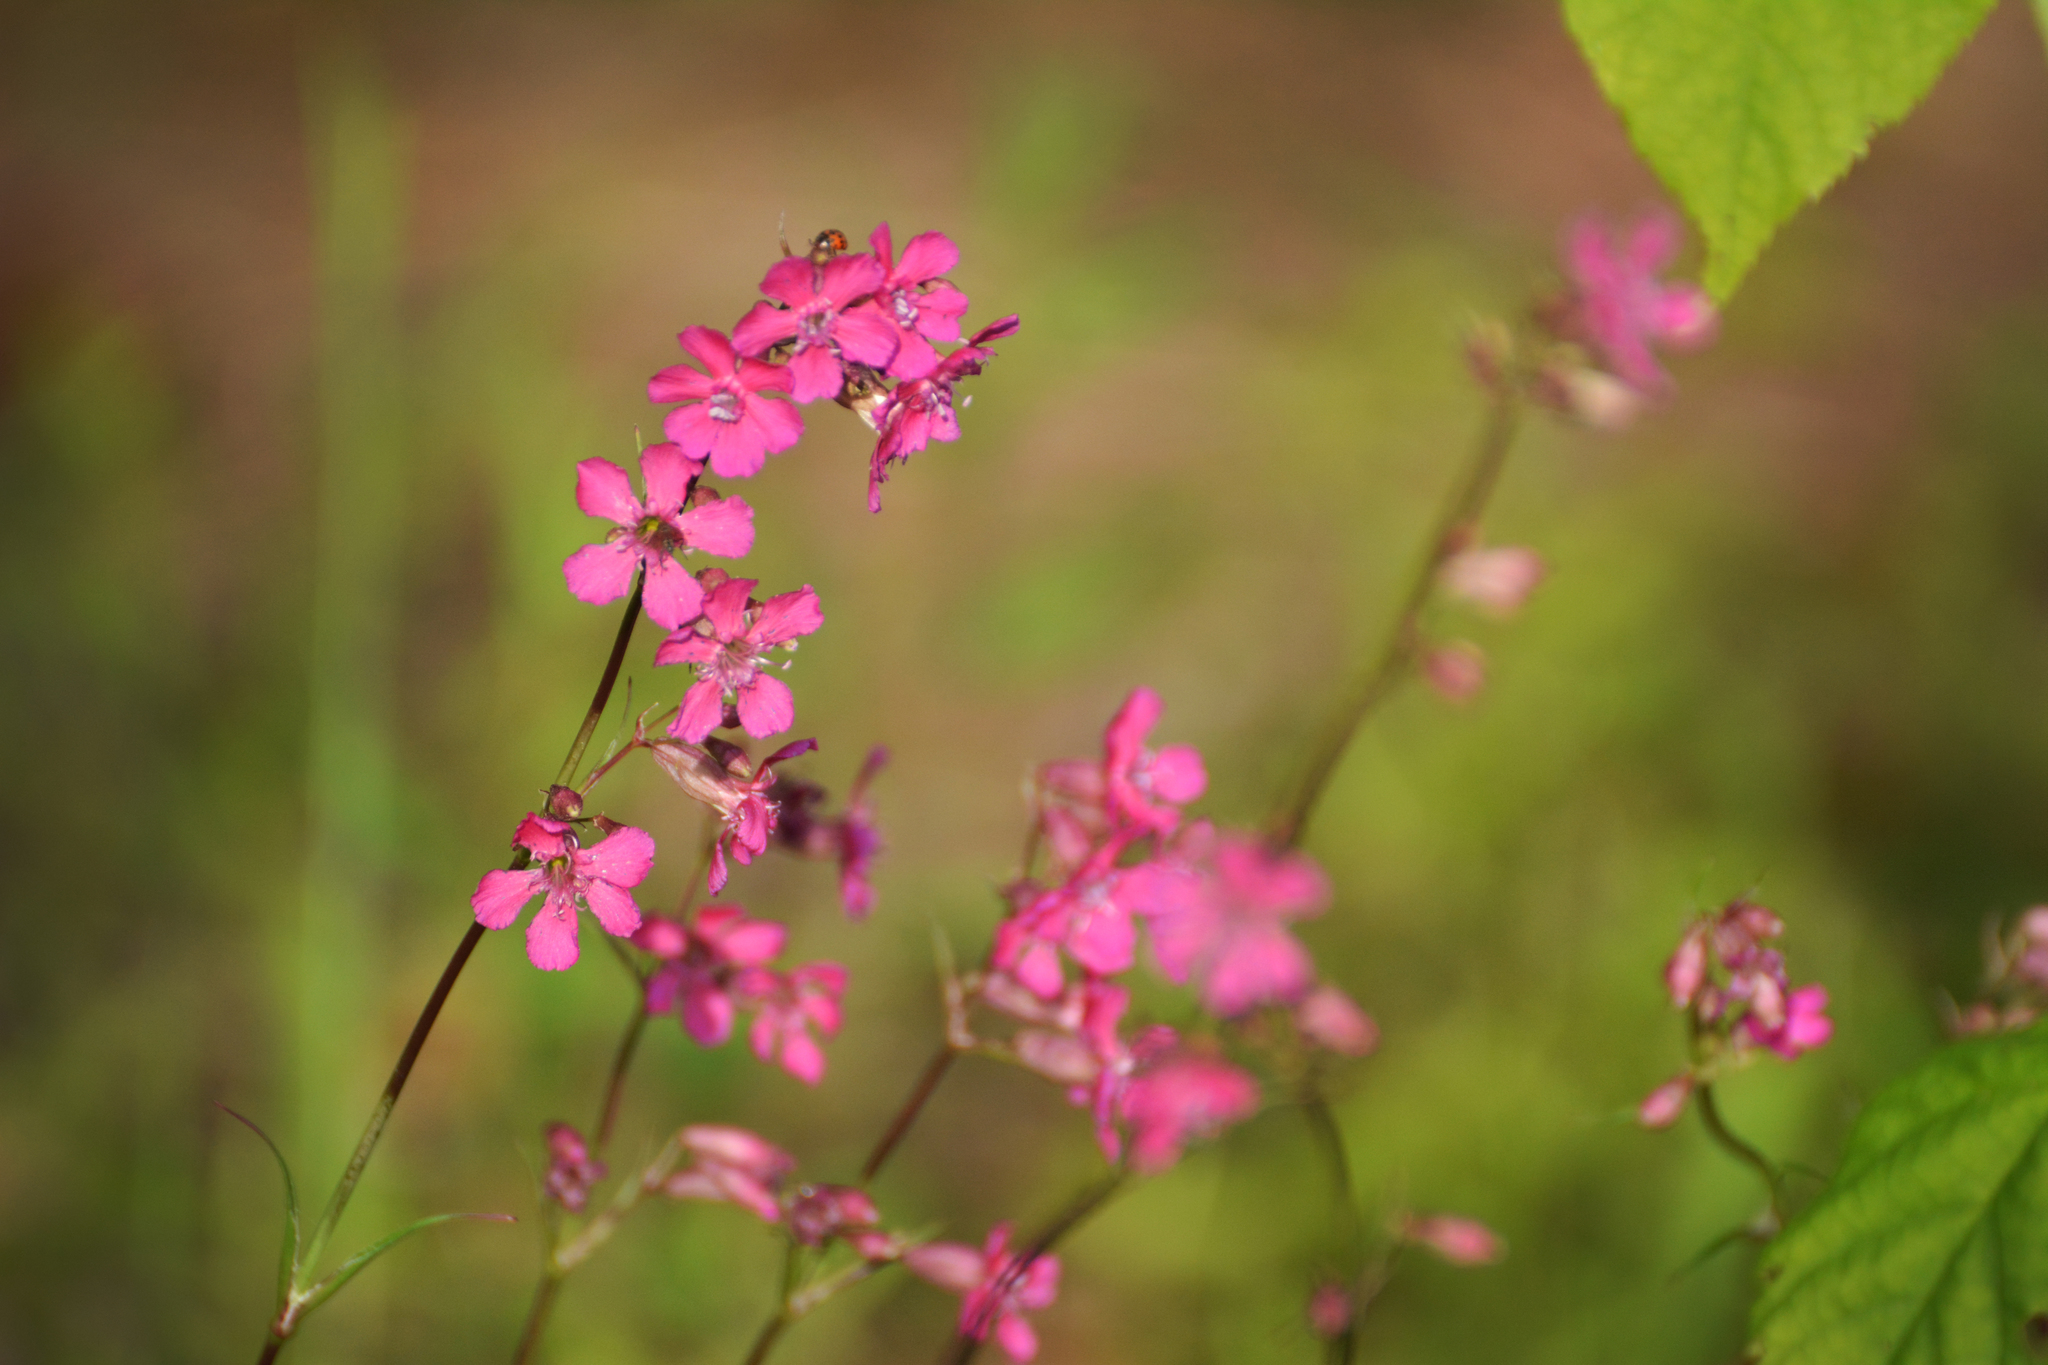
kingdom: Plantae
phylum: Tracheophyta
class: Magnoliopsida
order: Caryophyllales
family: Caryophyllaceae
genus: Viscaria
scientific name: Viscaria vulgaris
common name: Clammy campion
